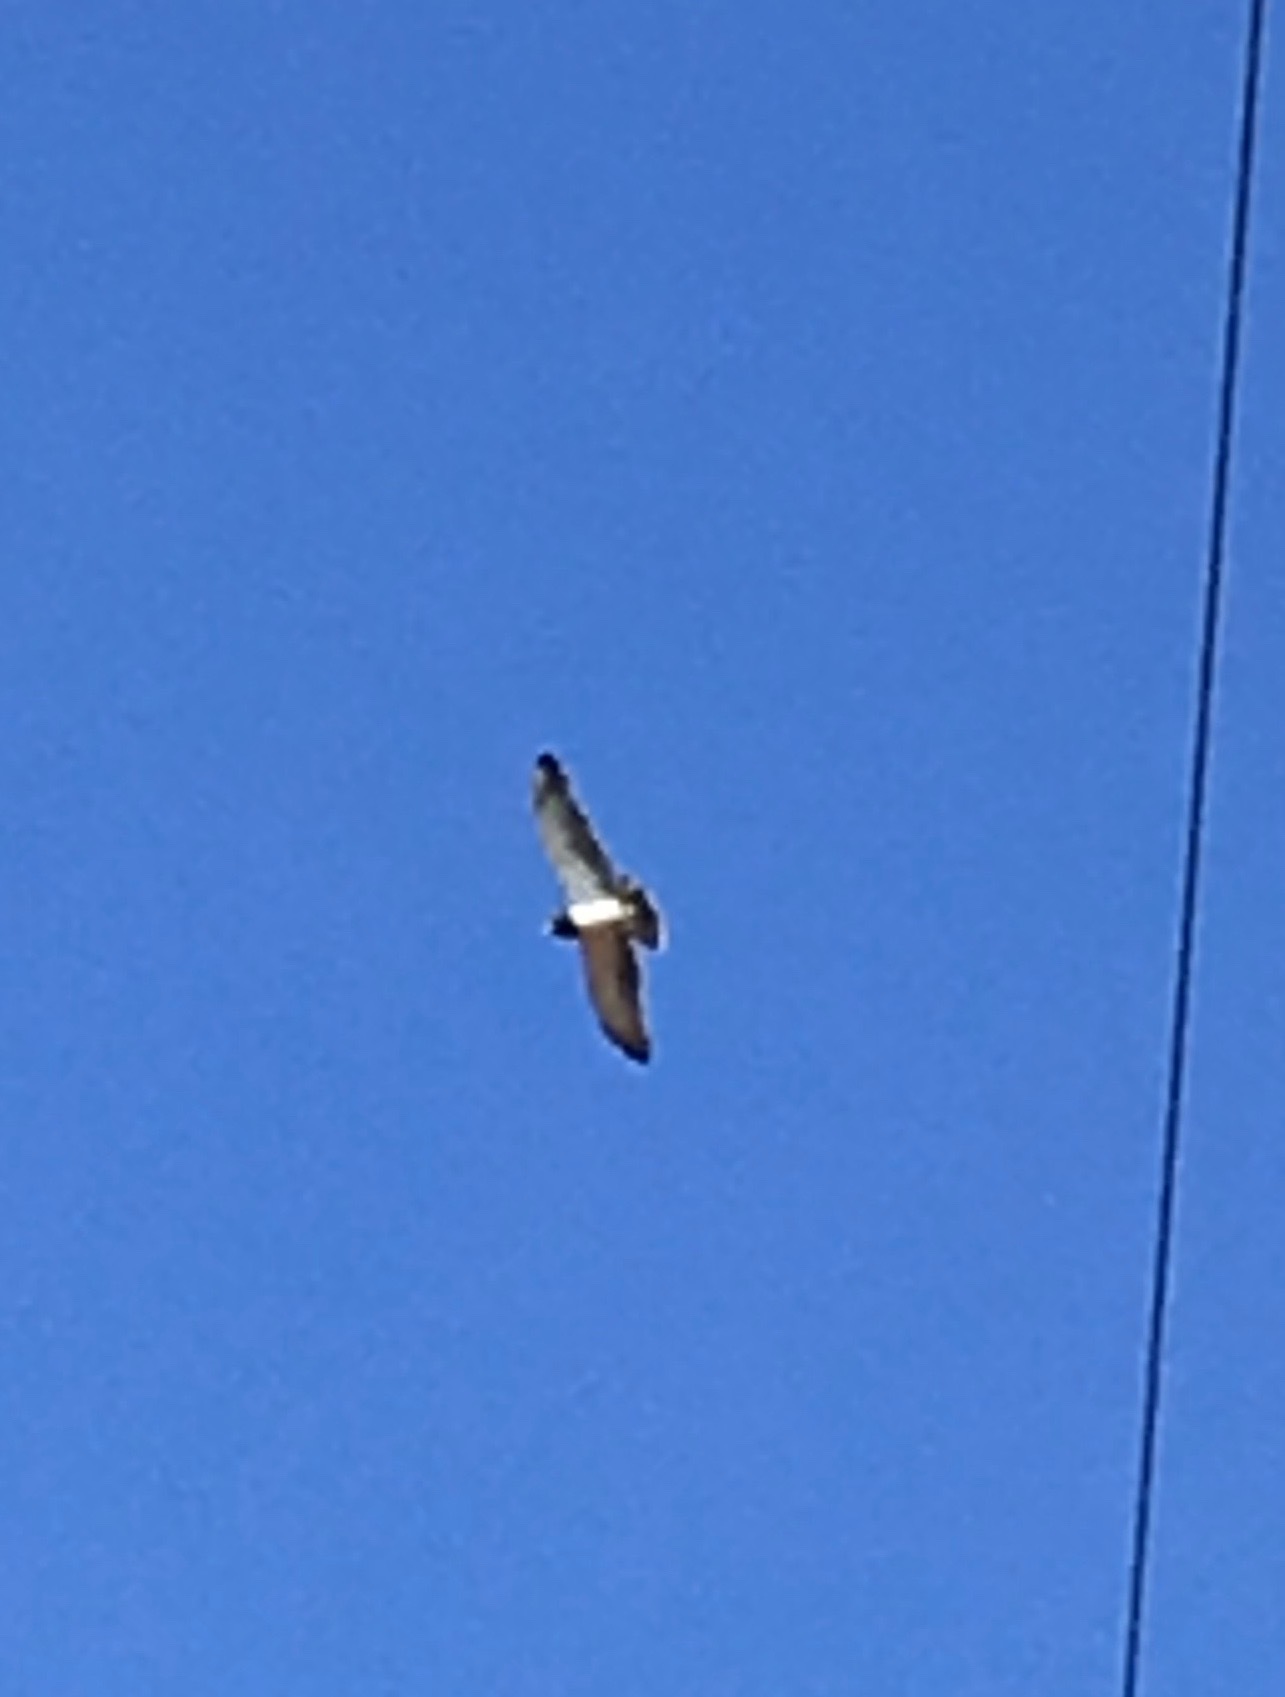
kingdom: Animalia
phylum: Chordata
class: Aves
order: Accipitriformes
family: Accipitridae
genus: Circaetus
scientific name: Circaetus pectoralis
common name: Black-chested snake eagle
